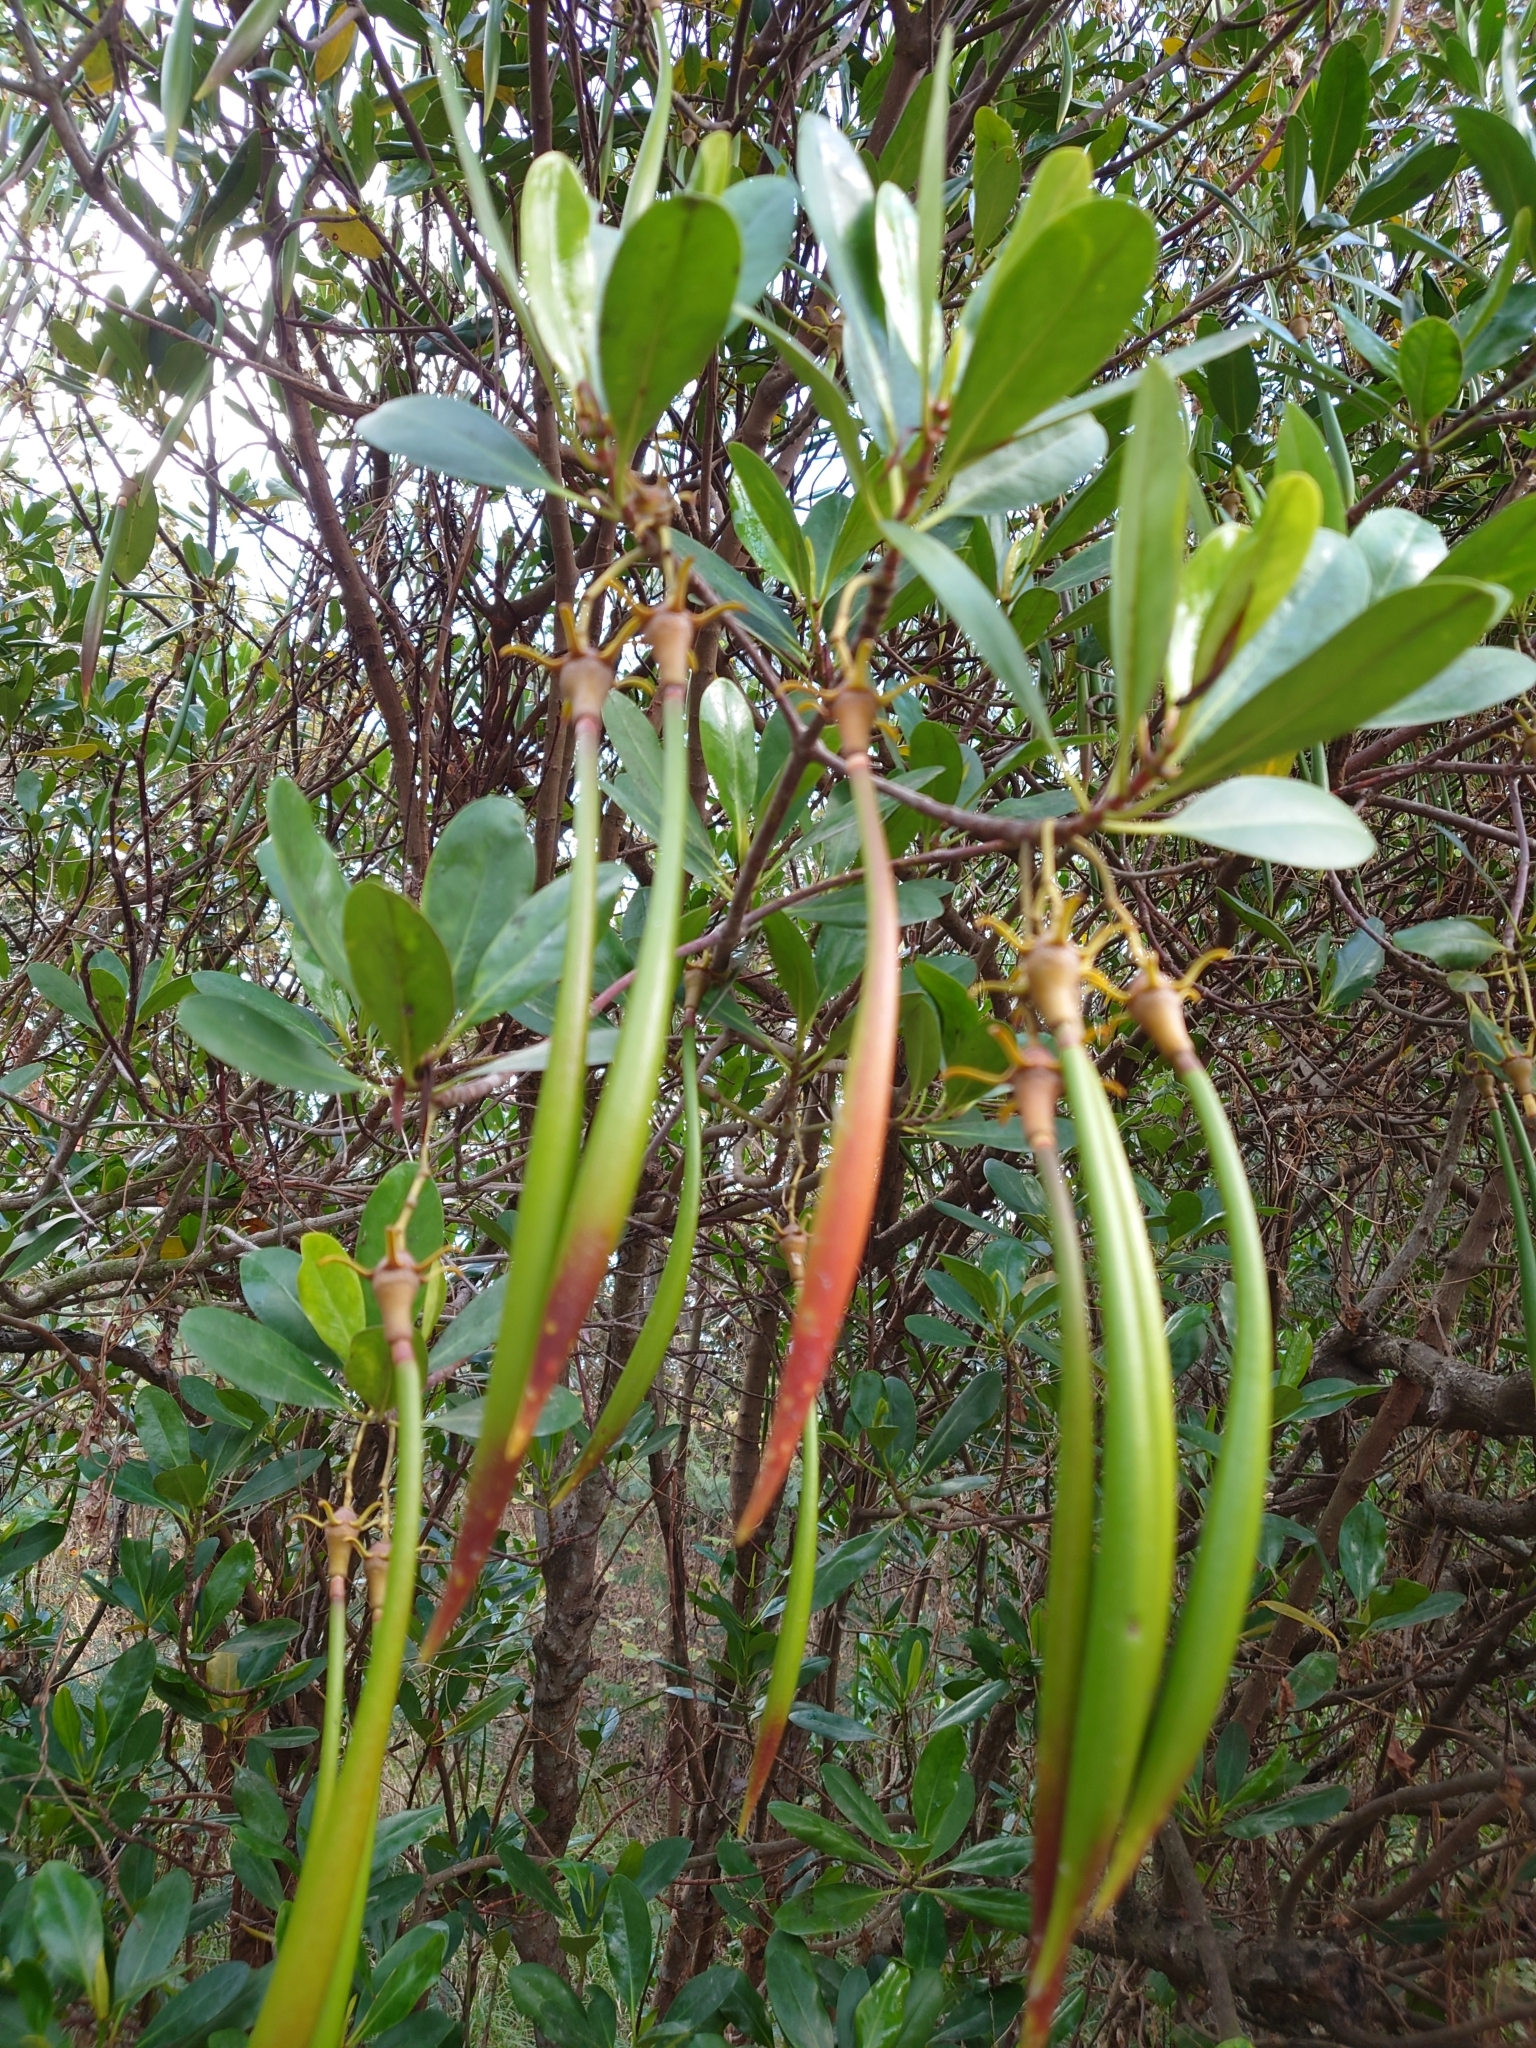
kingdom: Plantae
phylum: Tracheophyta
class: Magnoliopsida
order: Malpighiales
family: Rhizophoraceae
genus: Kandelia
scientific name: Kandelia obovata
